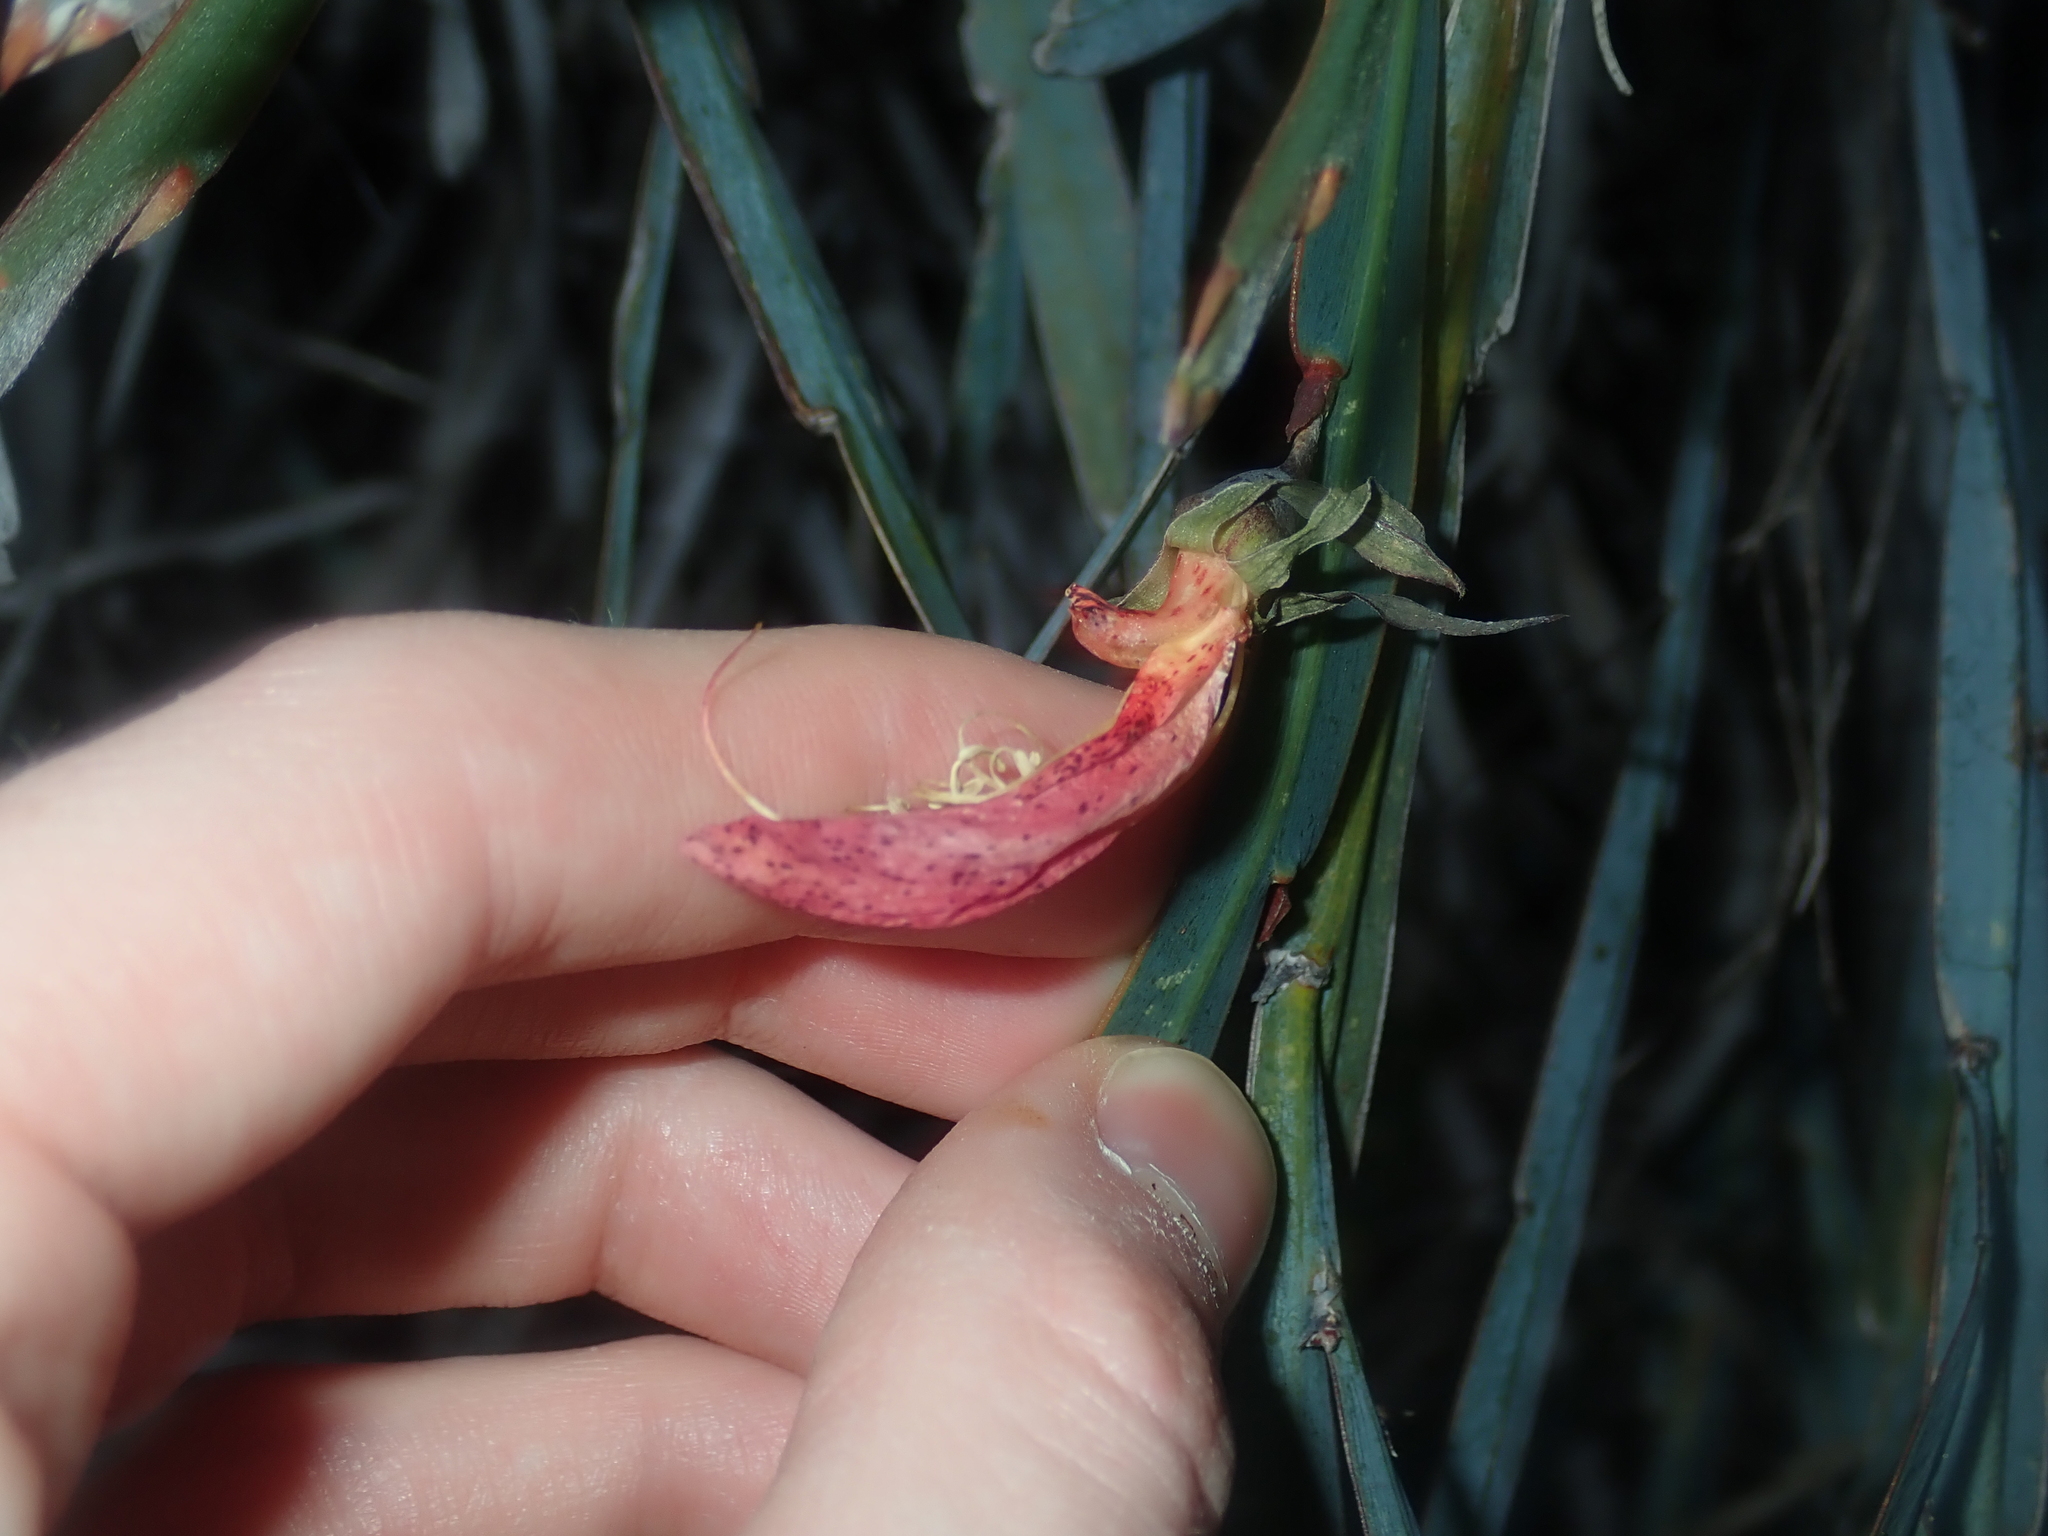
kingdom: Plantae
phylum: Tracheophyta
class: Magnoliopsida
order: Fabales
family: Fabaceae
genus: Leptosema
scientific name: Leptosema aphyllum
